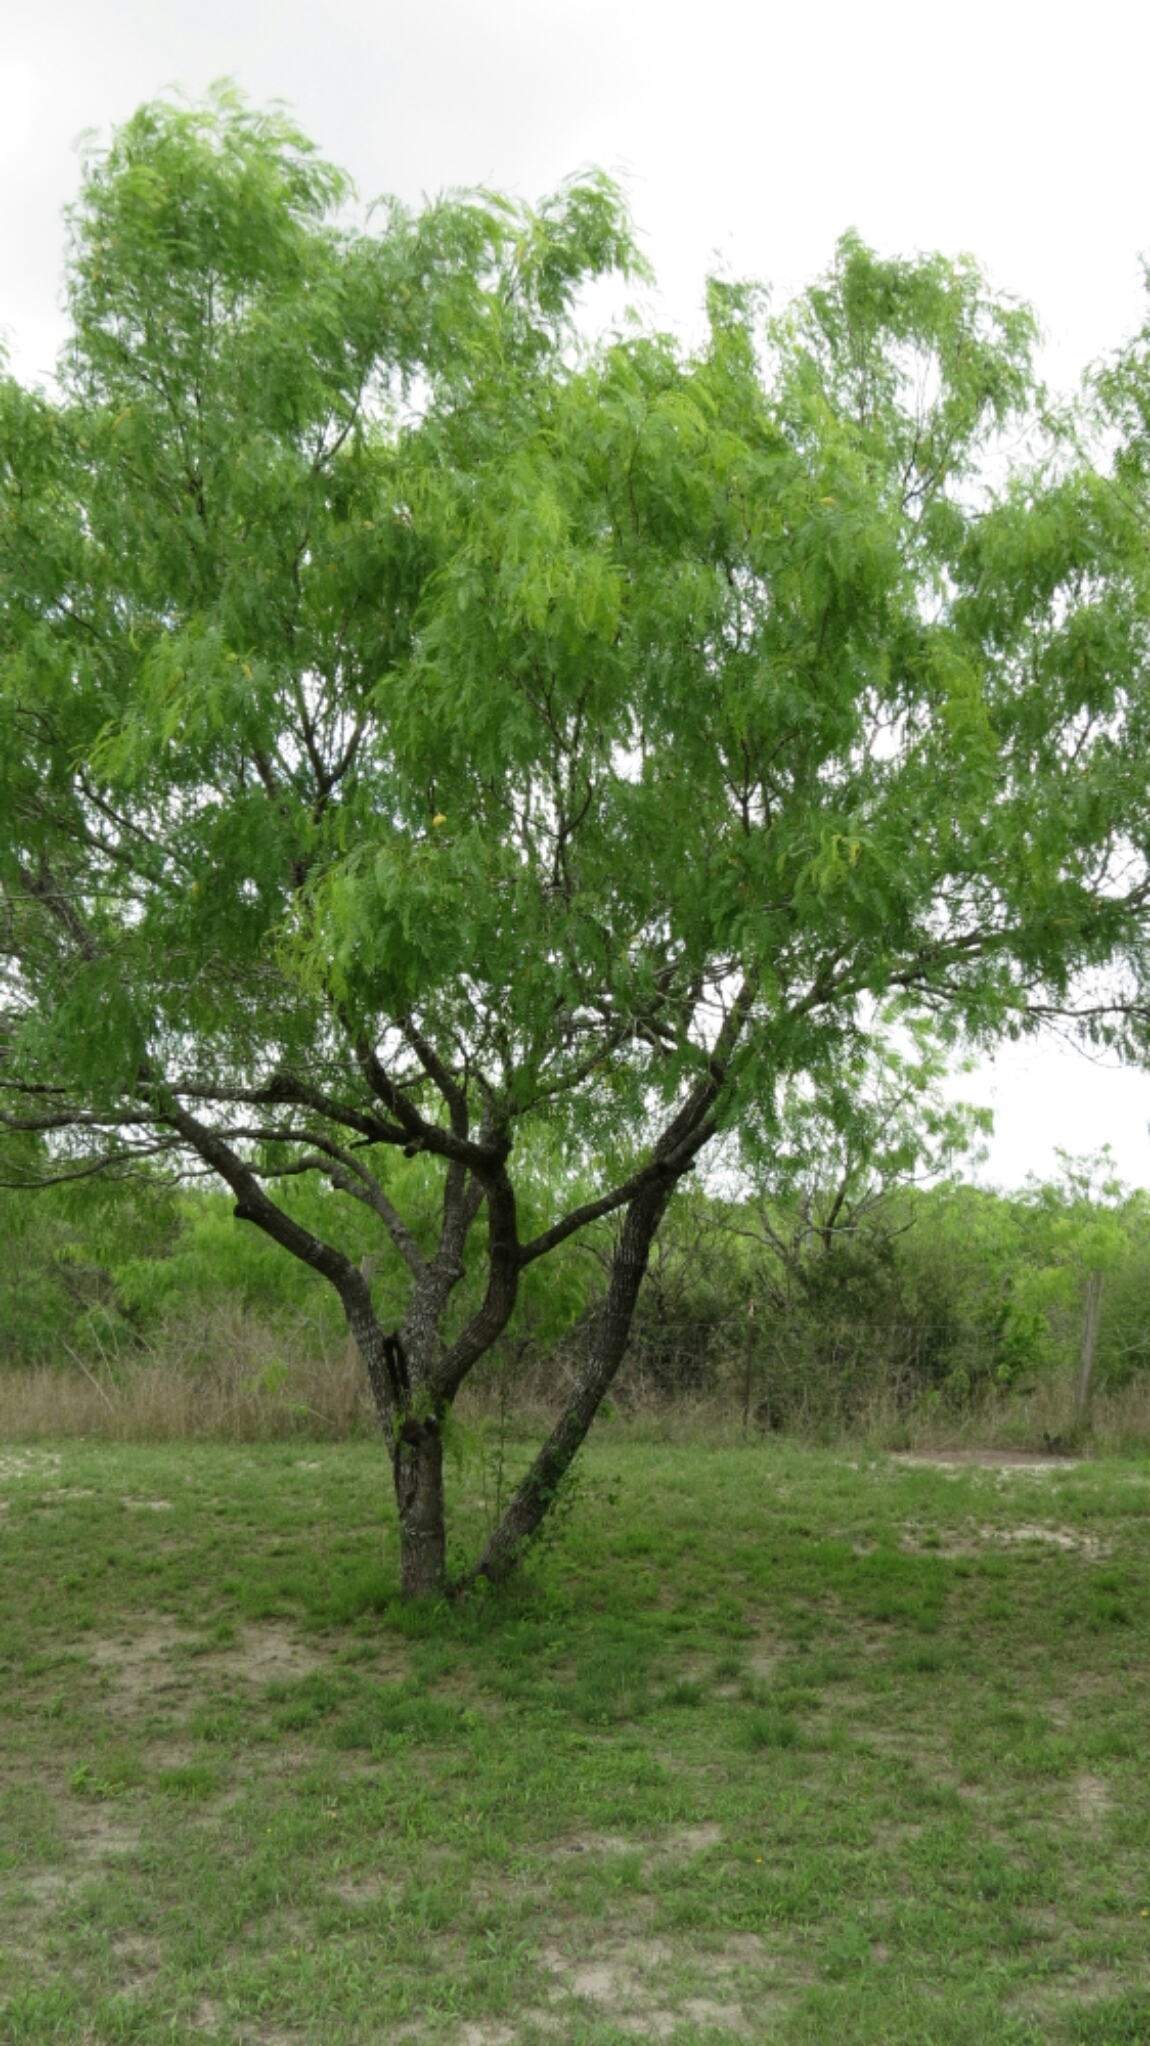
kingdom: Plantae
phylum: Tracheophyta
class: Magnoliopsida
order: Fabales
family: Fabaceae
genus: Prosopis
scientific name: Prosopis glandulosa
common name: Honey mesquite
